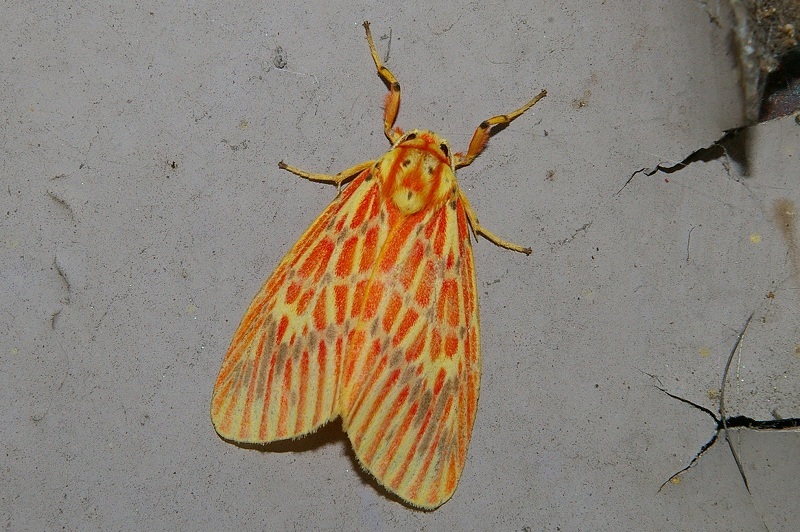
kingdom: Animalia
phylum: Arthropoda
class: Insecta
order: Lepidoptera
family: Erebidae
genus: Barsine
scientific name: Barsine striata
